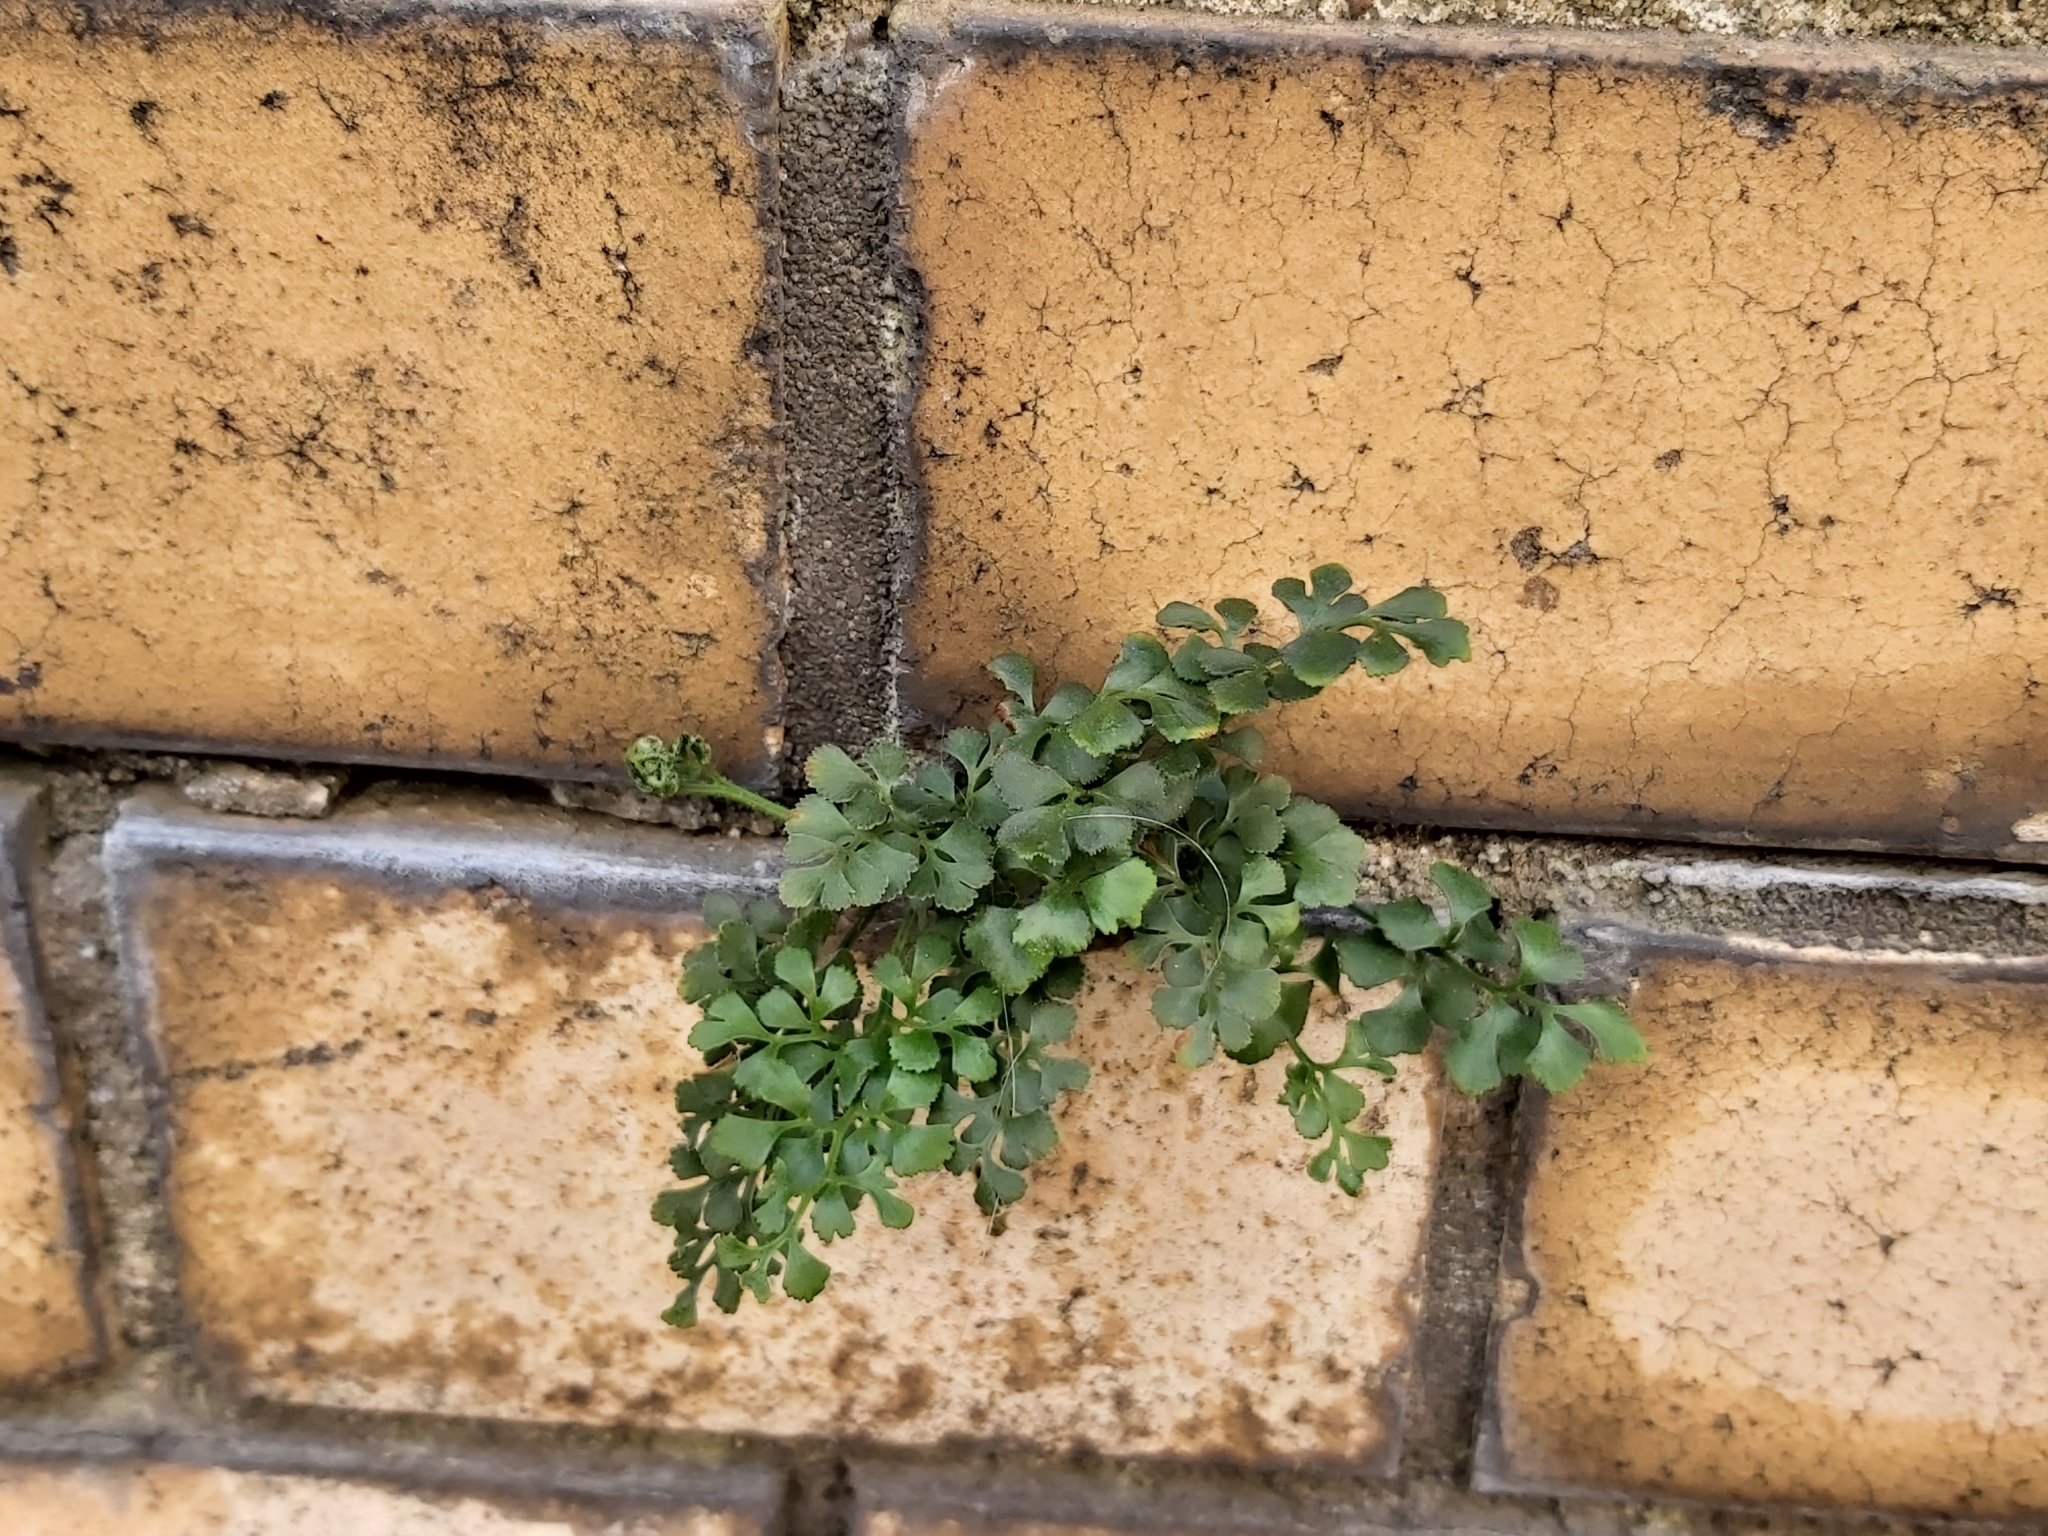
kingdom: Plantae
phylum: Tracheophyta
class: Polypodiopsida
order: Polypodiales
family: Aspleniaceae
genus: Asplenium
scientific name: Asplenium ruta-muraria
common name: Wall-rue
